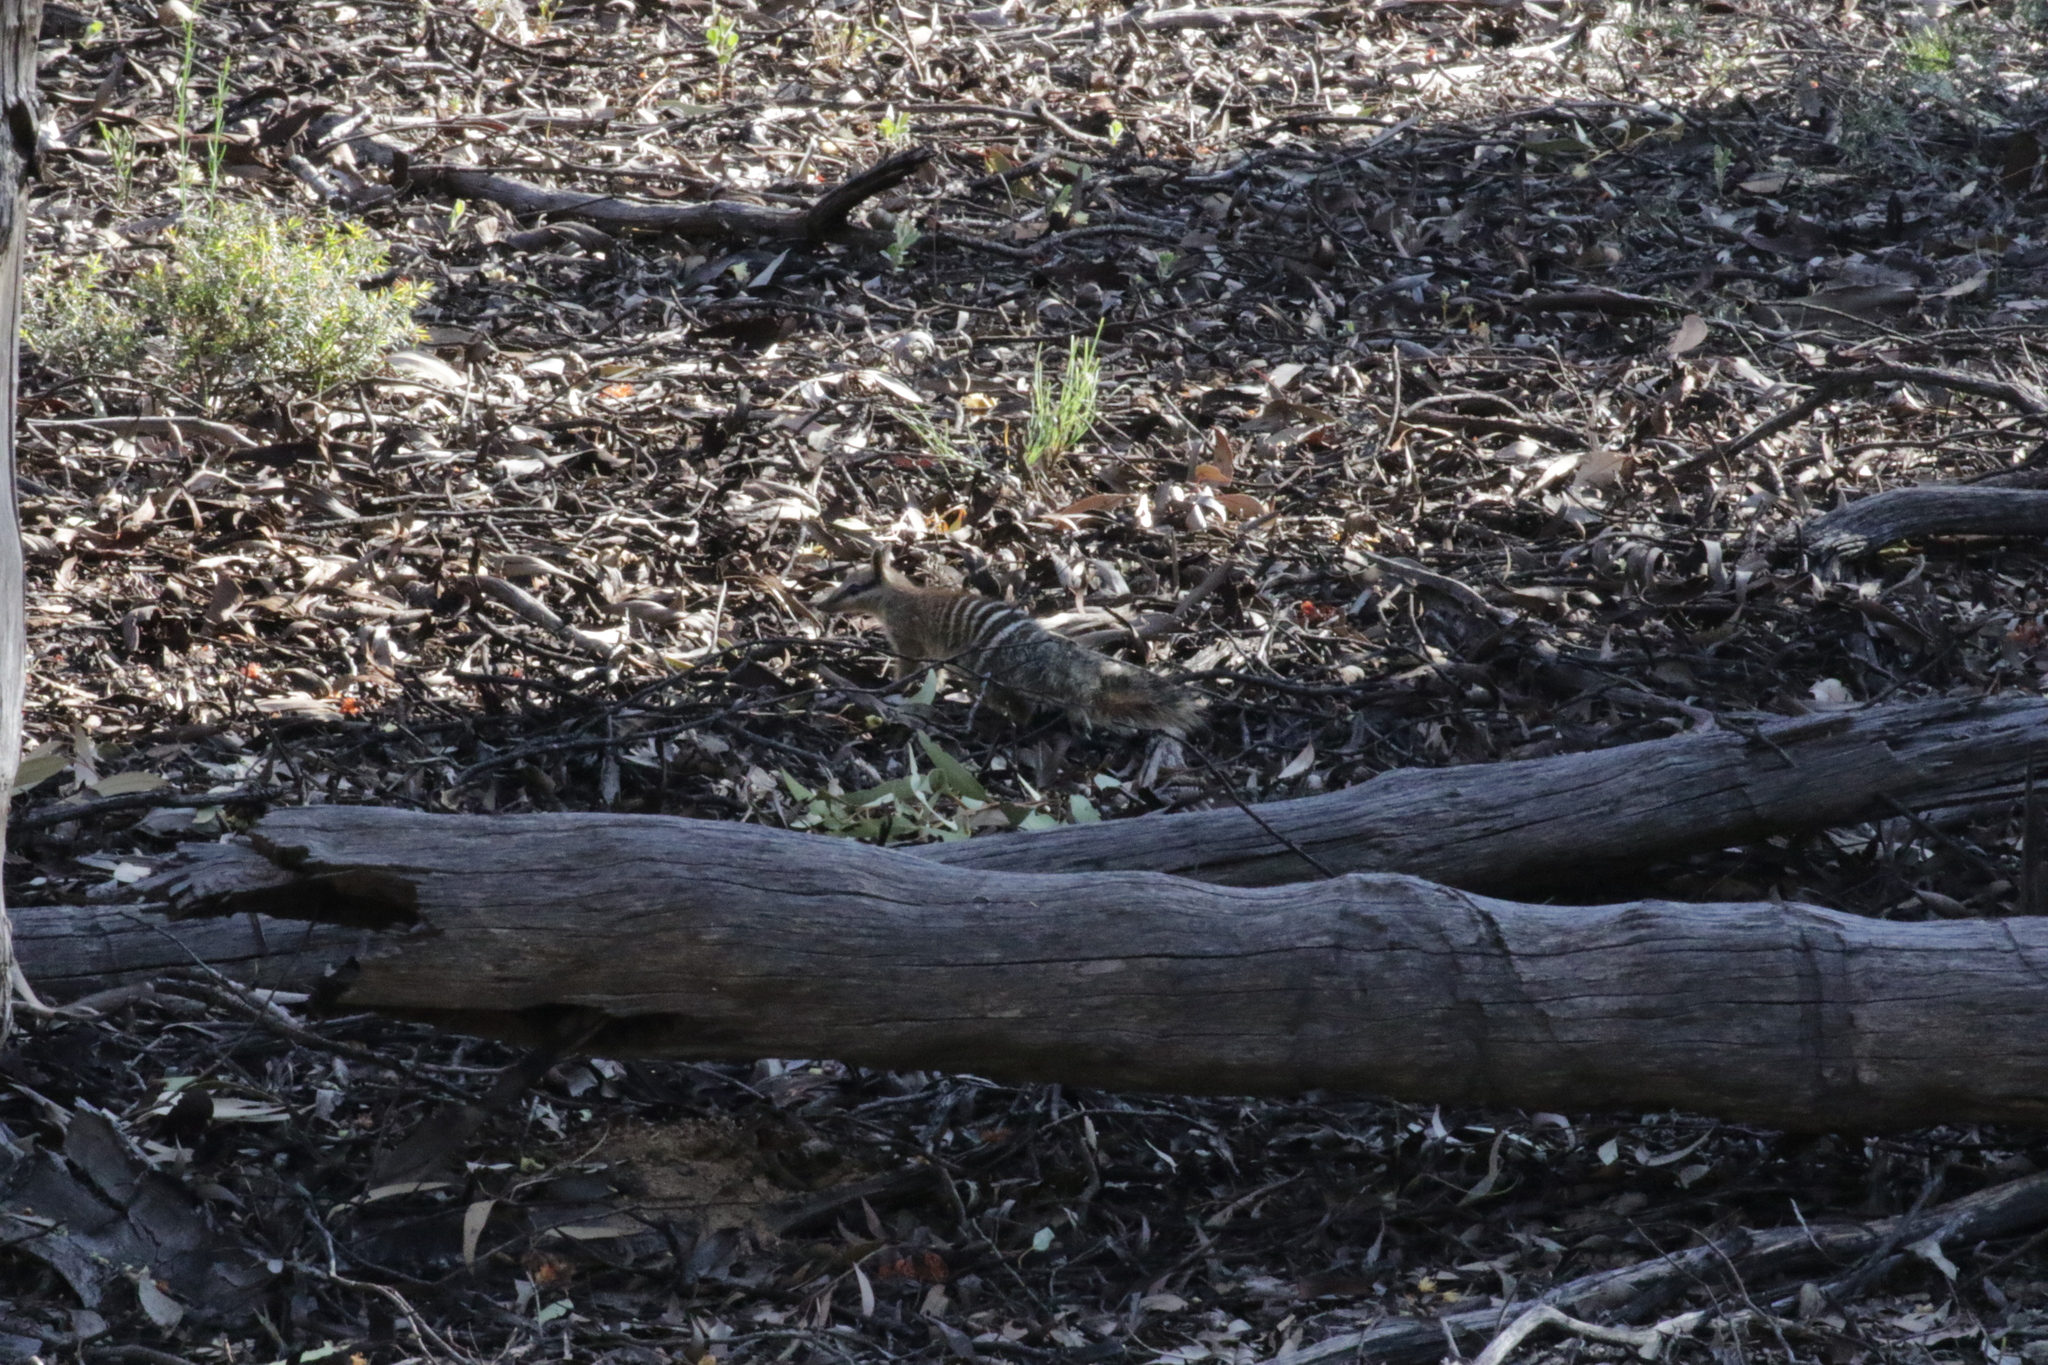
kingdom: Animalia
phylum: Chordata
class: Mammalia
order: Dasyuromorphia
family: Myrmecobiidae
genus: Myrmecobius
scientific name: Myrmecobius fasciatus
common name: Numbat
